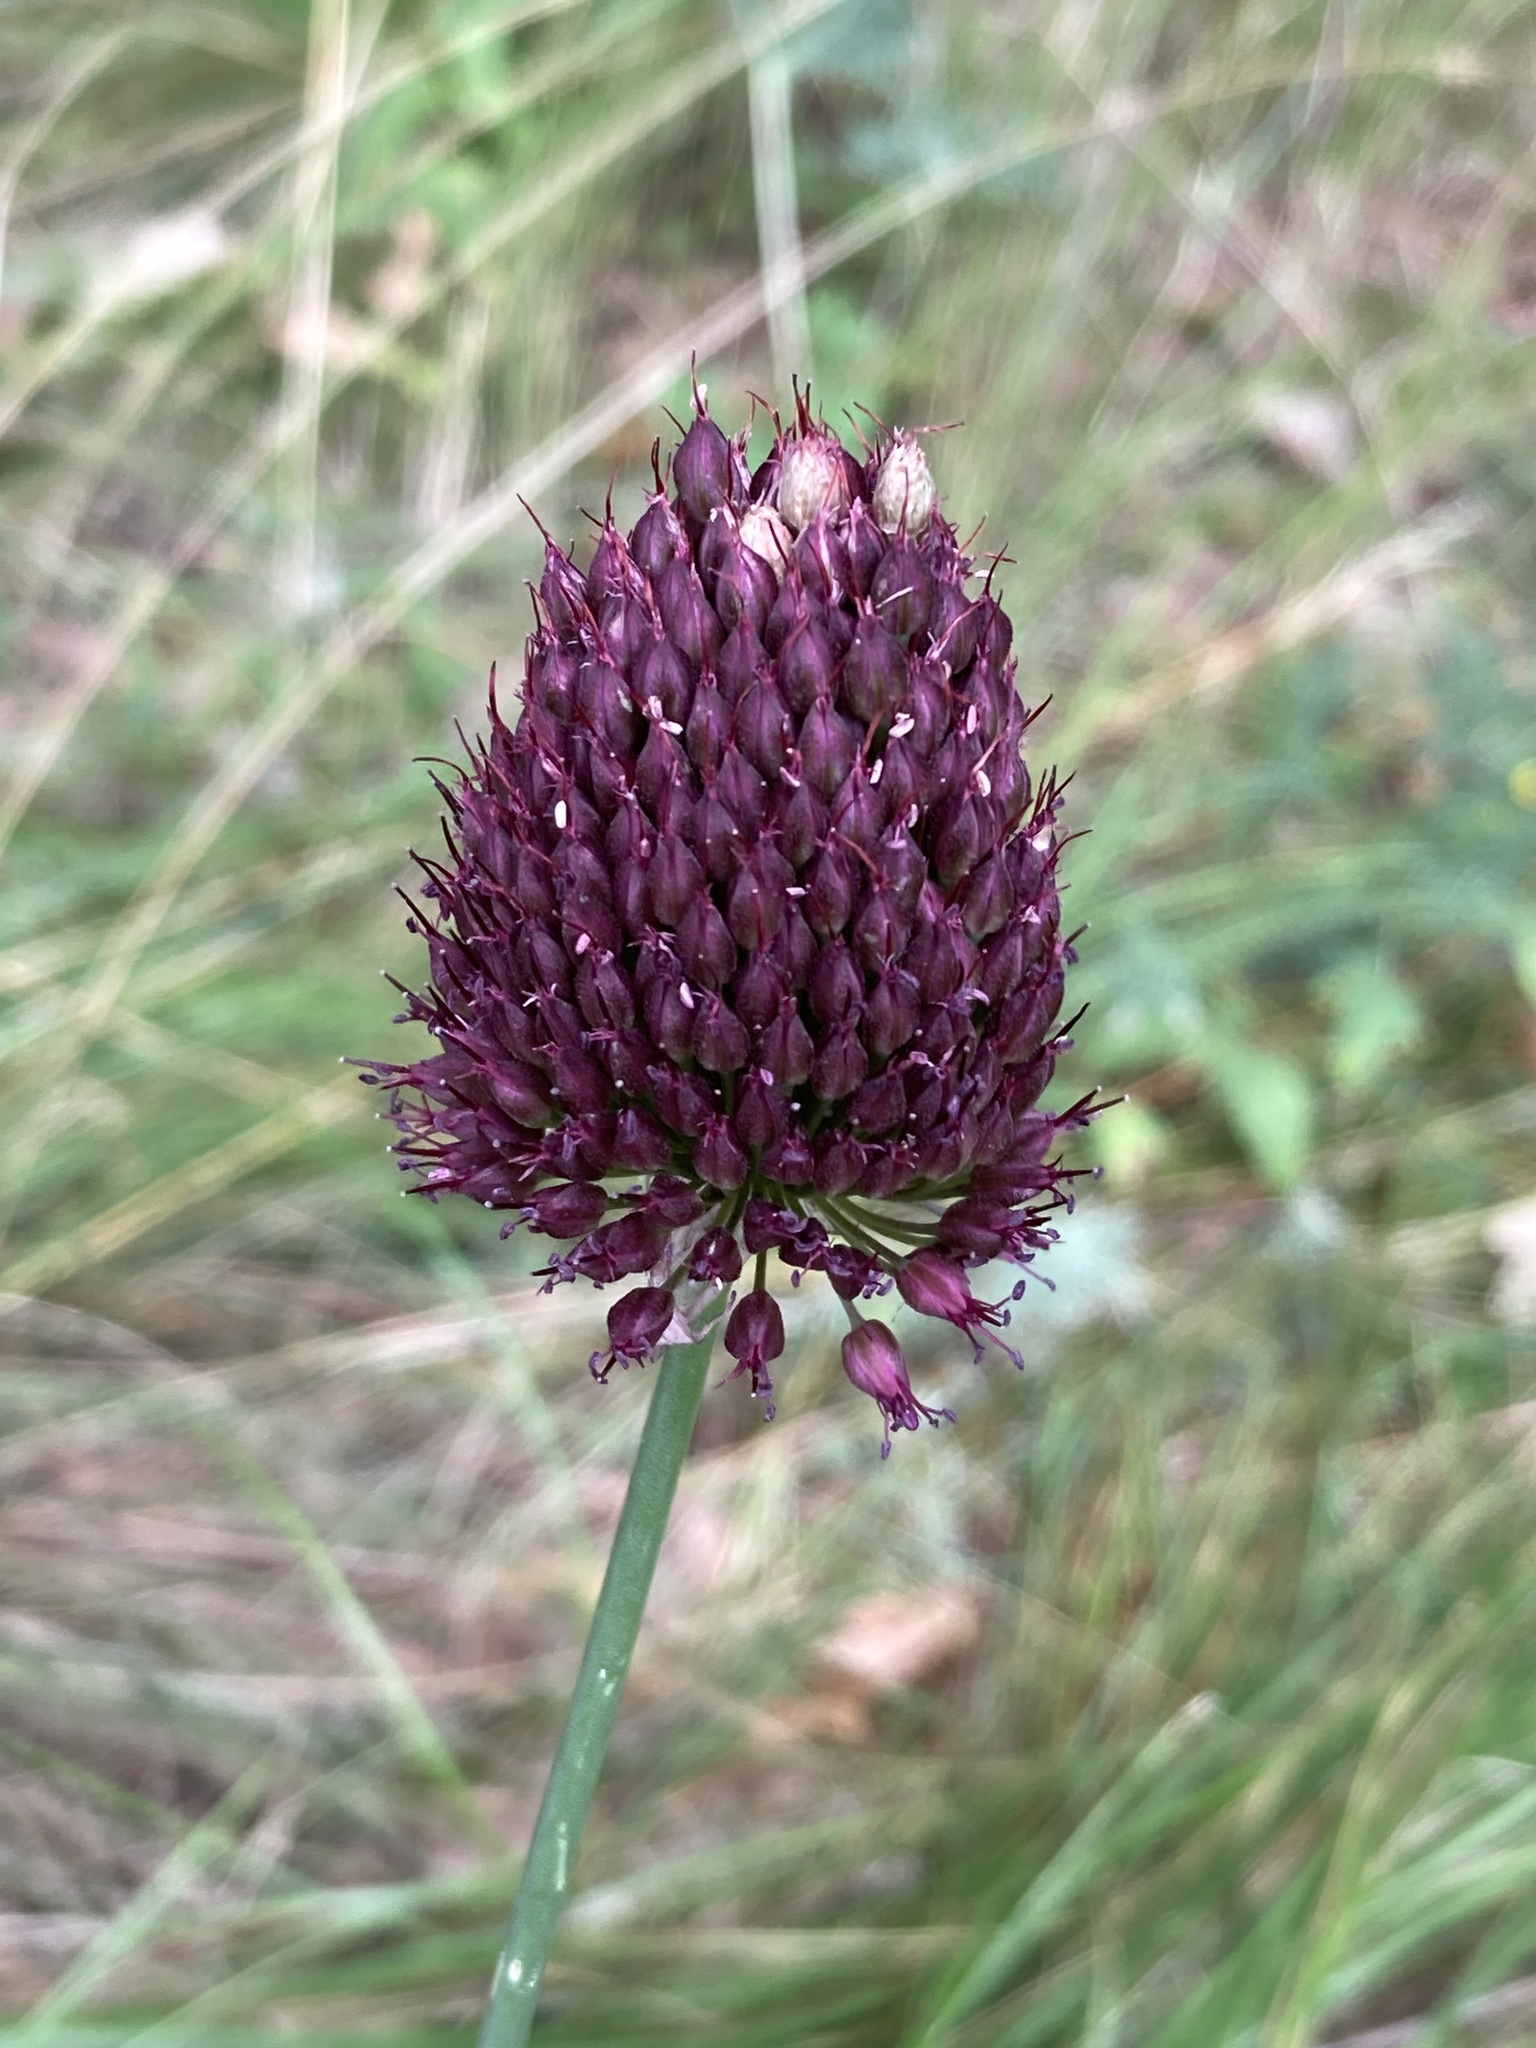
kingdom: Plantae
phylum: Tracheophyta
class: Liliopsida
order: Asparagales
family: Amaryllidaceae
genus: Allium
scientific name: Allium sphaerocephalon
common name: Round-headed leek
